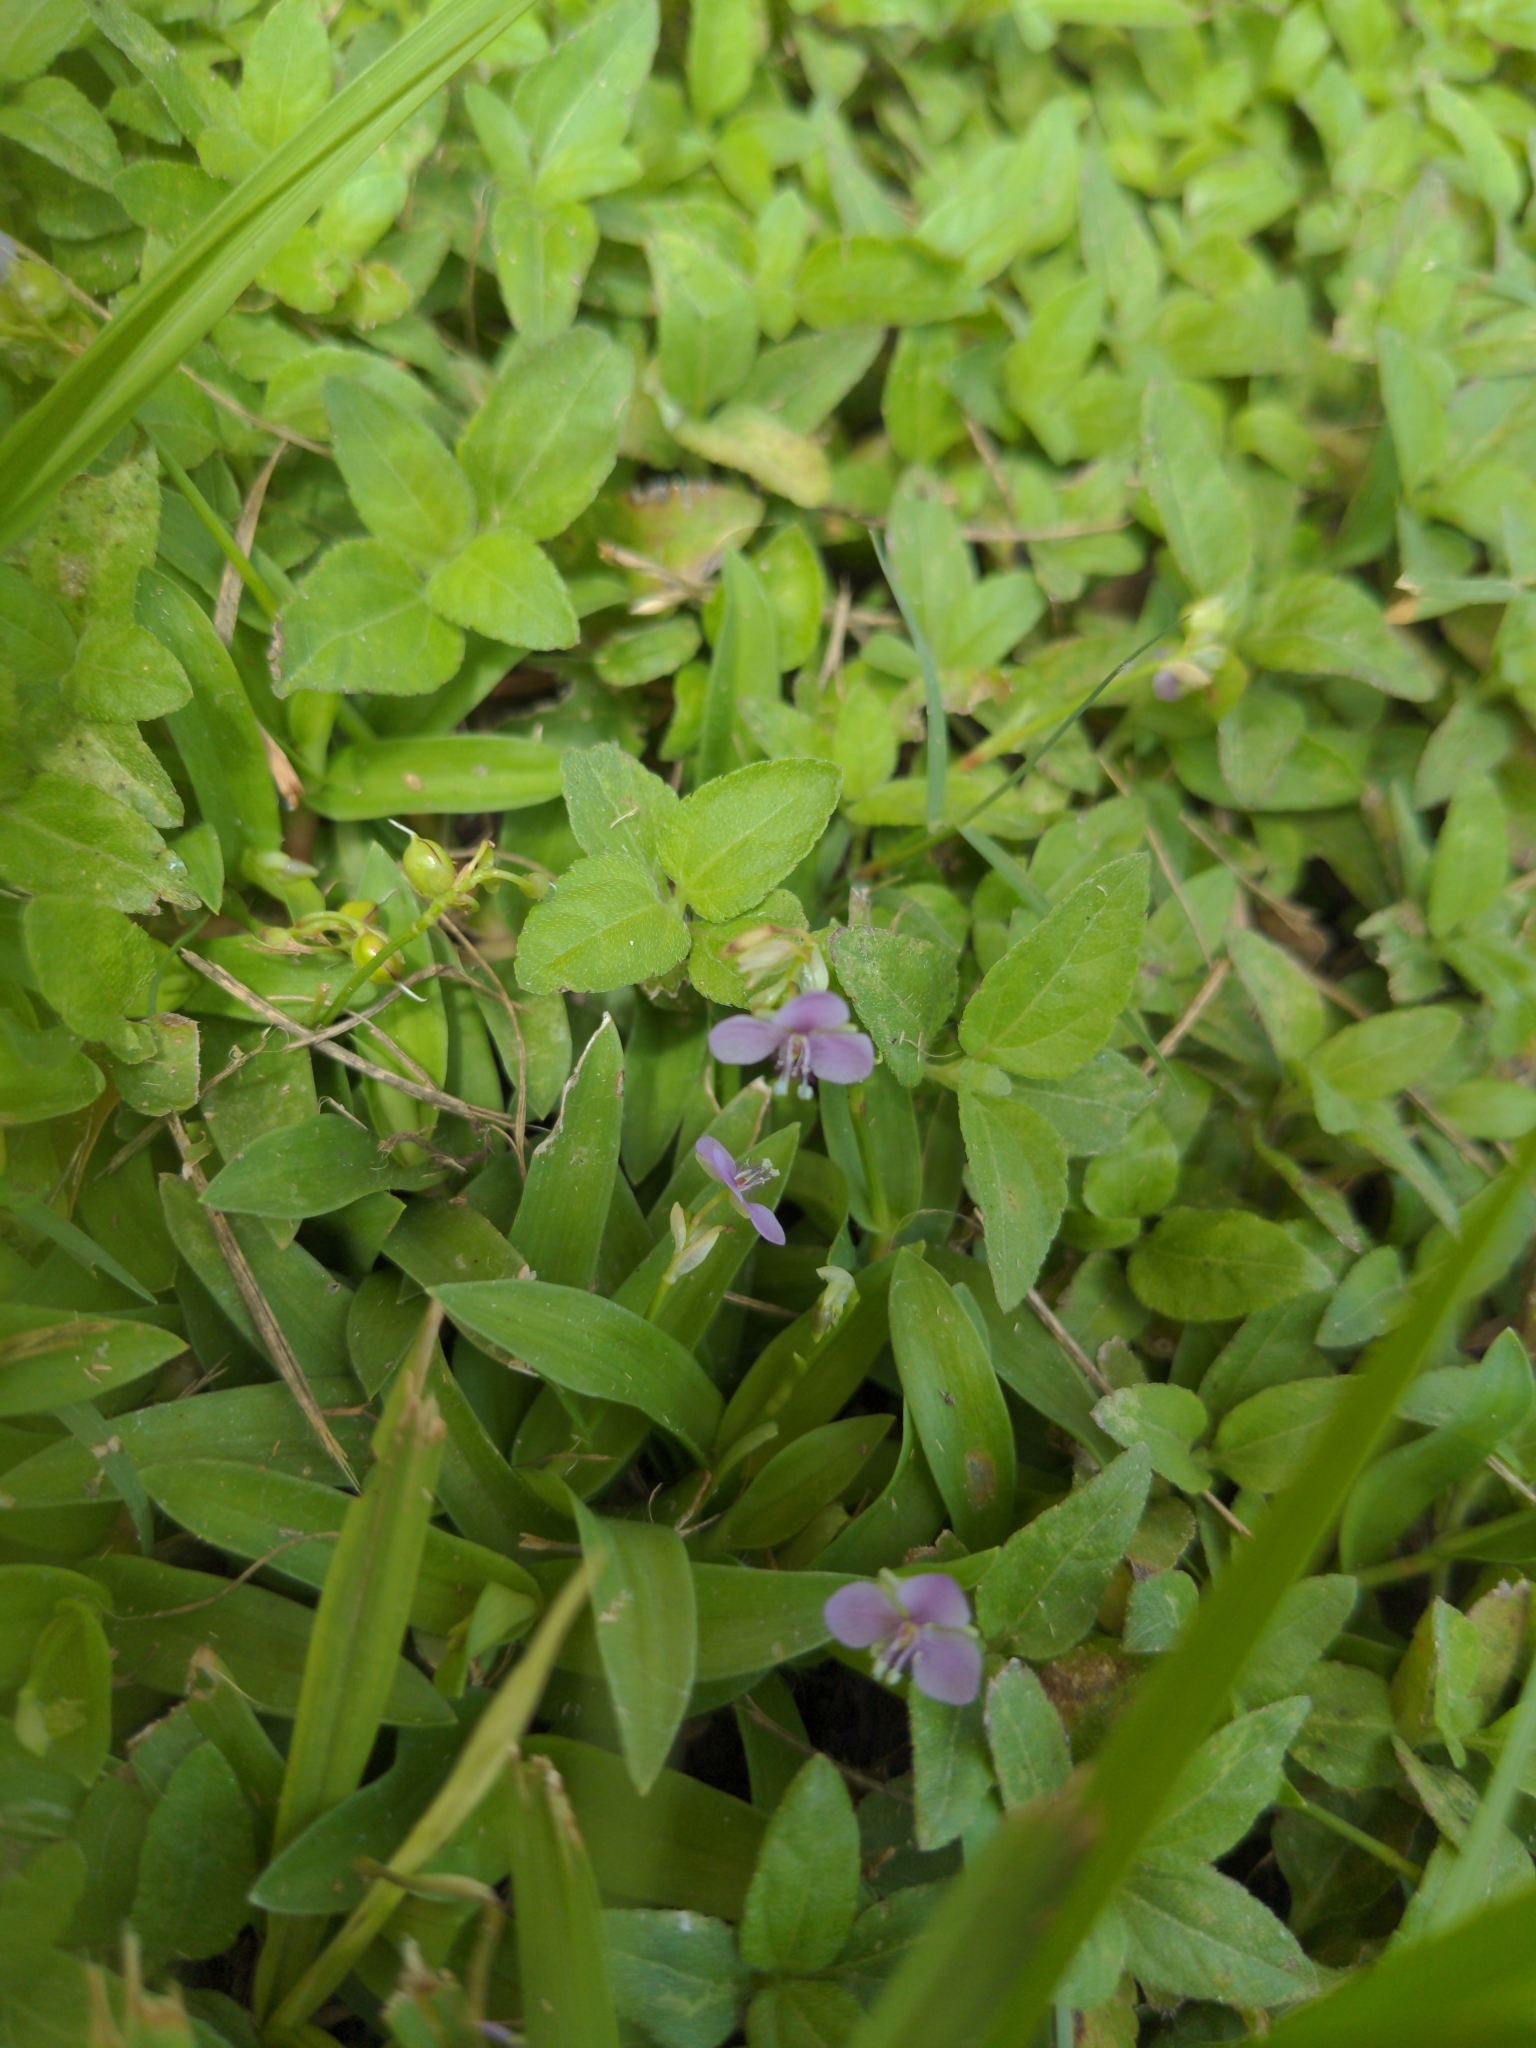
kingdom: Plantae
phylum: Tracheophyta
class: Liliopsida
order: Commelinales
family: Commelinaceae
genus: Murdannia
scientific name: Murdannia nudiflora
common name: Nakedstem dewflower
